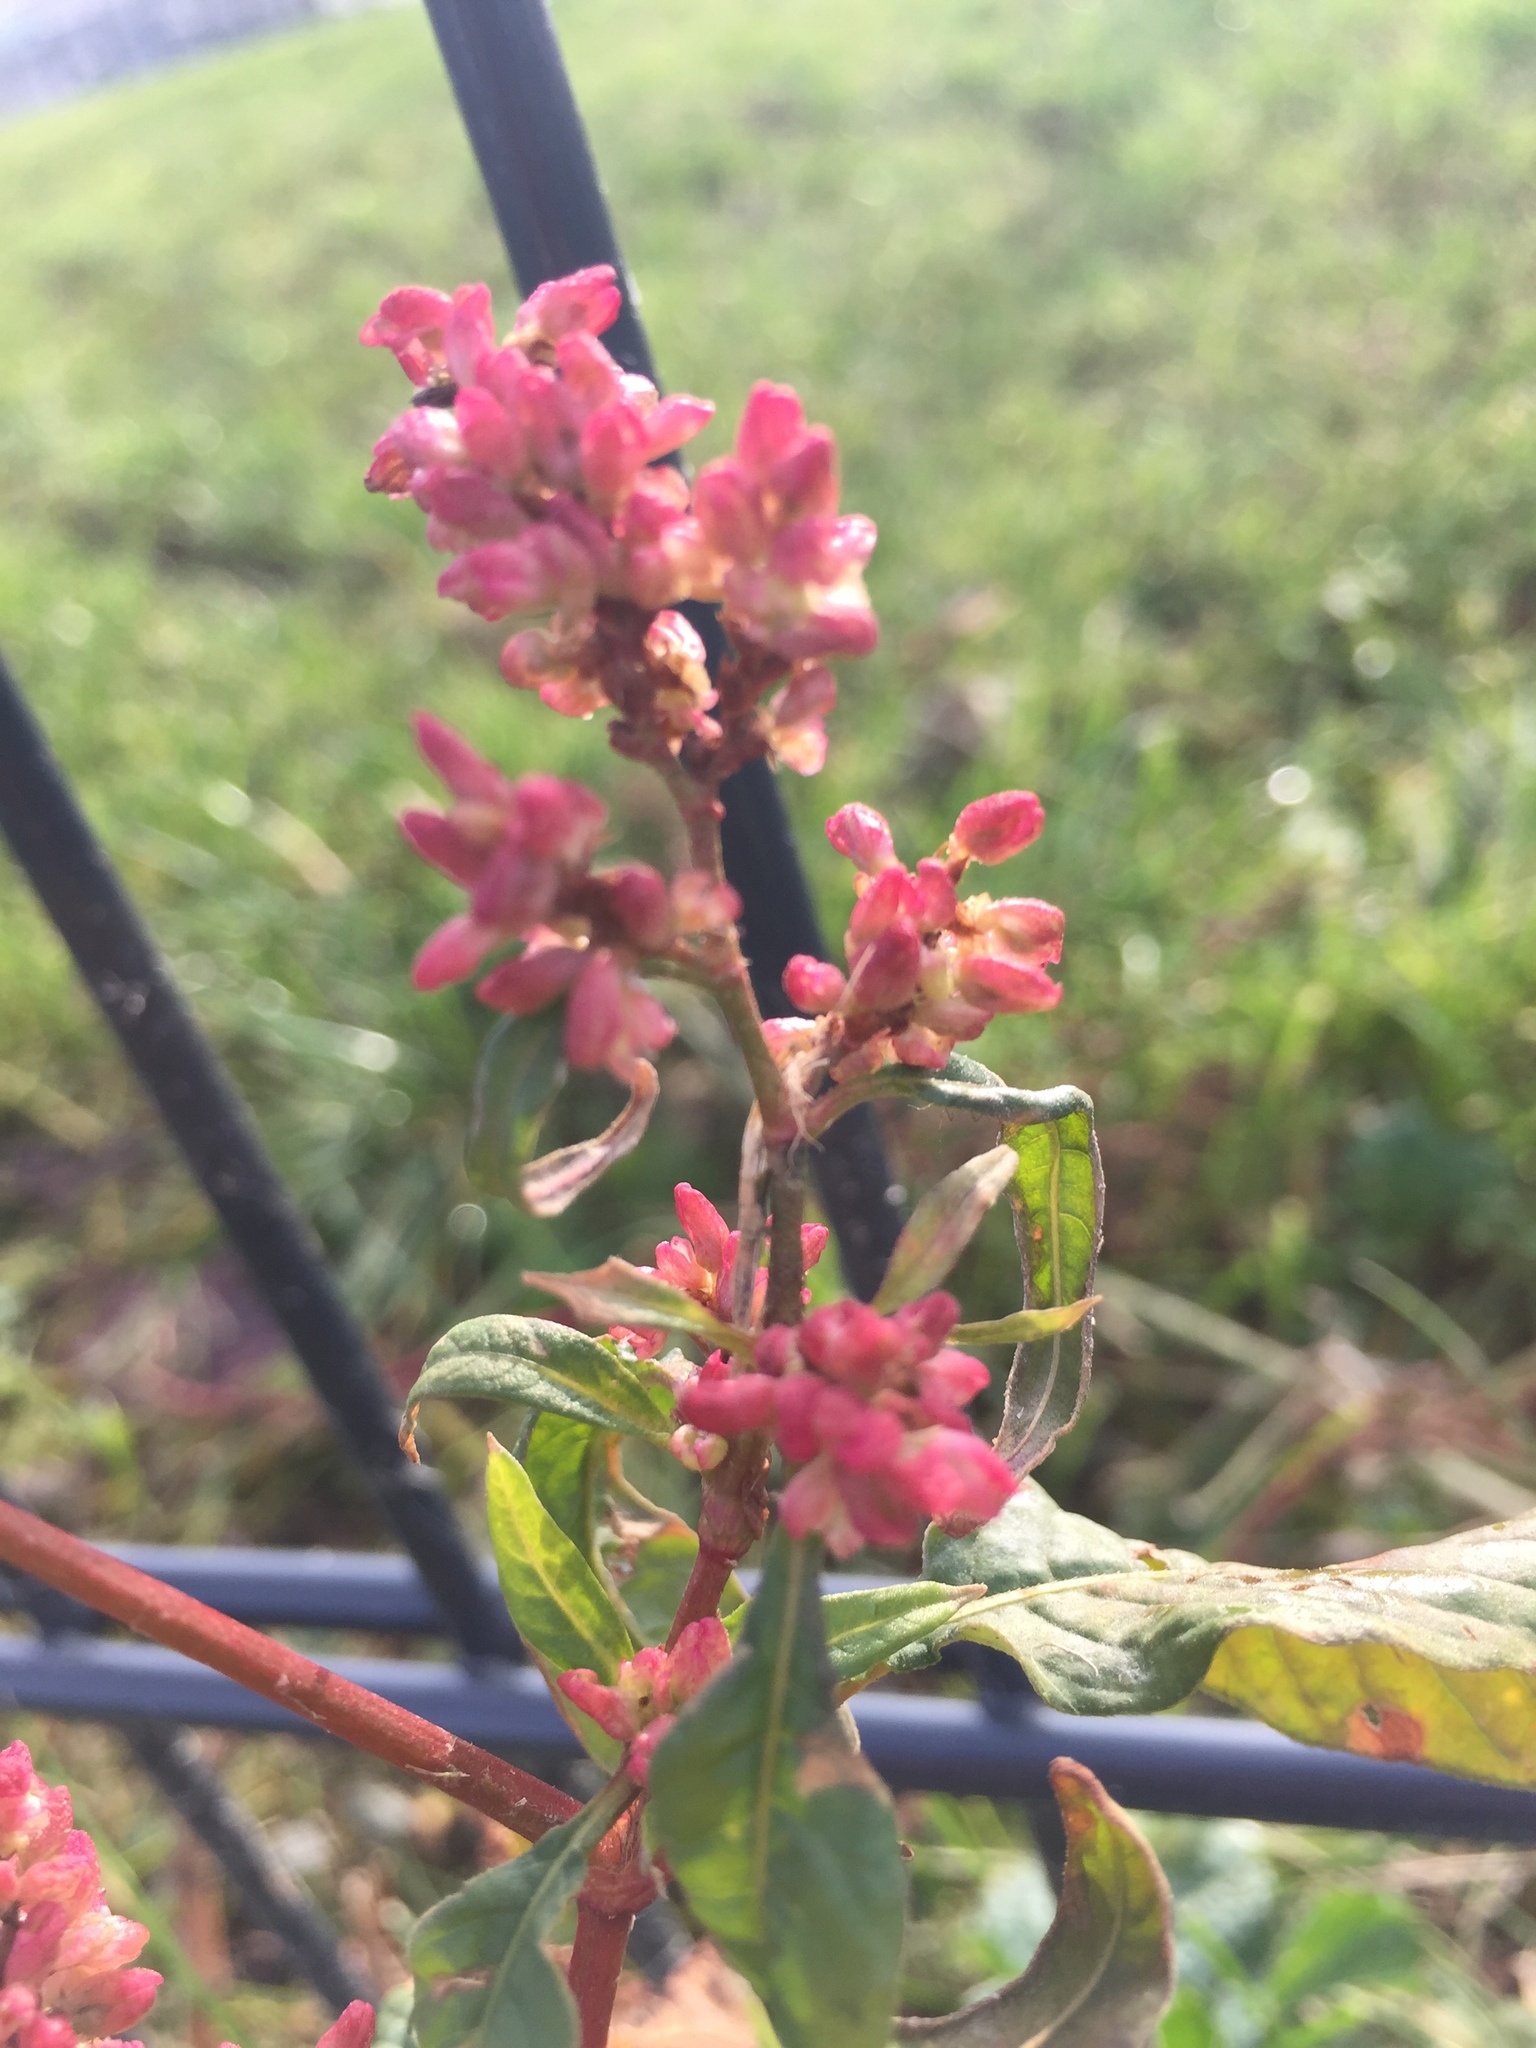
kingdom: Plantae
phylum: Tracheophyta
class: Magnoliopsida
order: Caryophyllales
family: Polygonaceae
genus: Persicaria
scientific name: Persicaria maculosa
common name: Redshank
